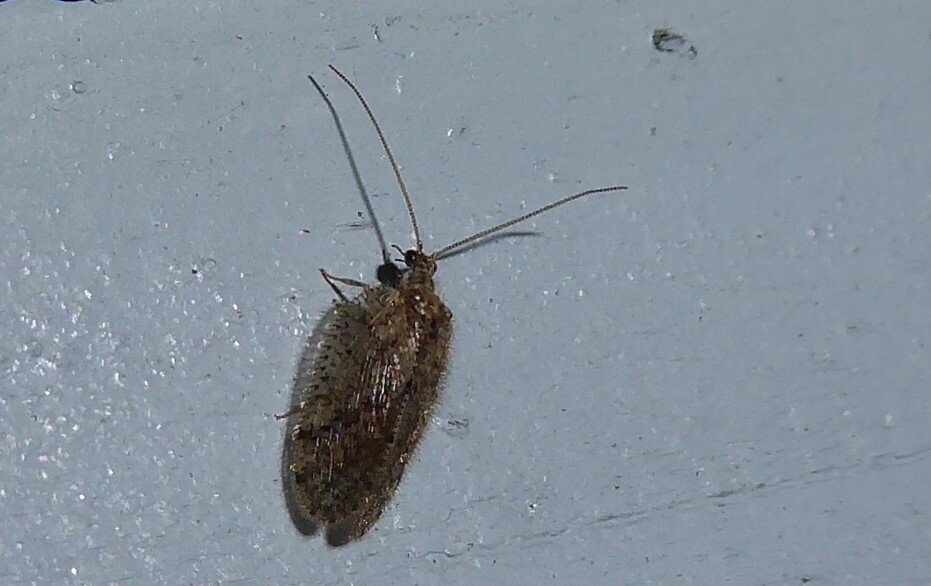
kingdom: Animalia
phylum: Arthropoda
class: Insecta
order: Neuroptera
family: Hemerobiidae
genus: Psectra
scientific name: Psectra nakaharai
